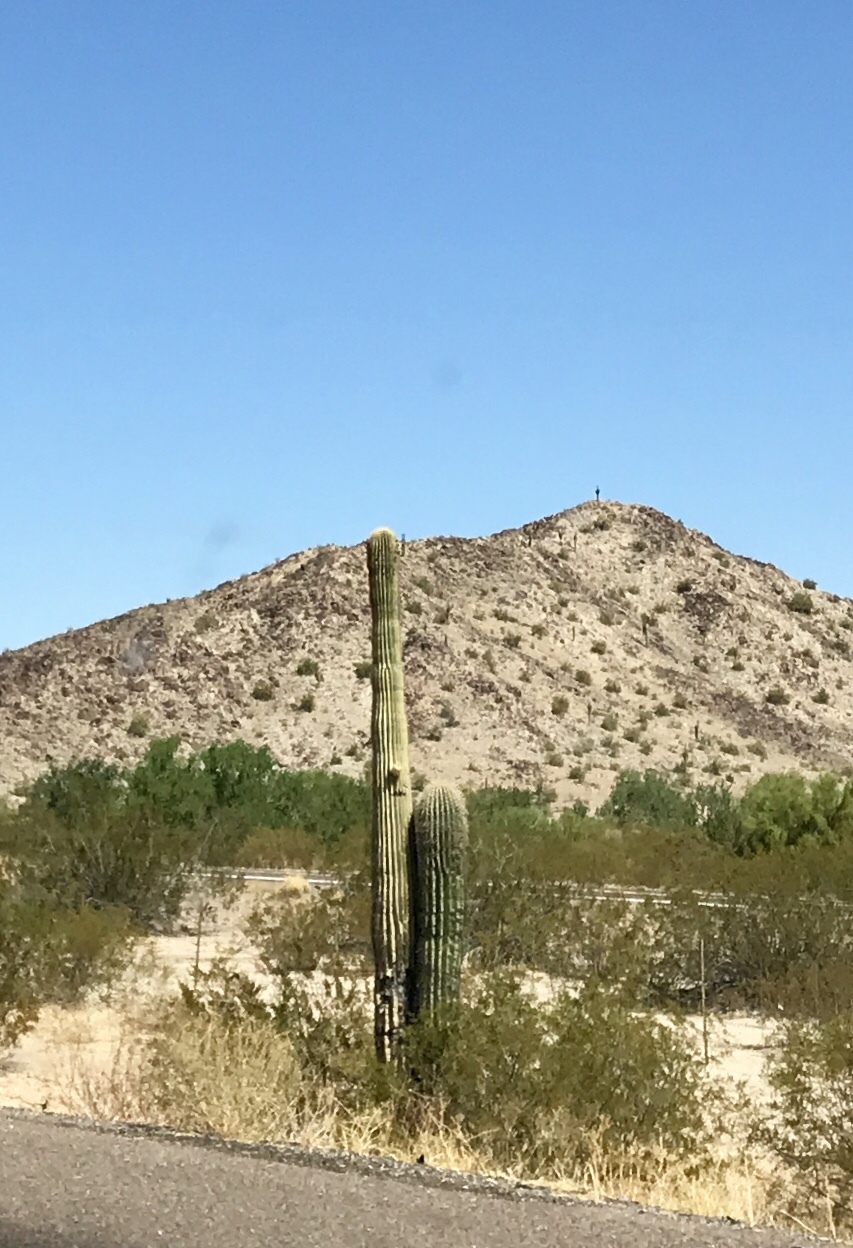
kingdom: Plantae
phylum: Tracheophyta
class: Magnoliopsida
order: Caryophyllales
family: Cactaceae
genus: Carnegiea
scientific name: Carnegiea gigantea
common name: Saguaro
